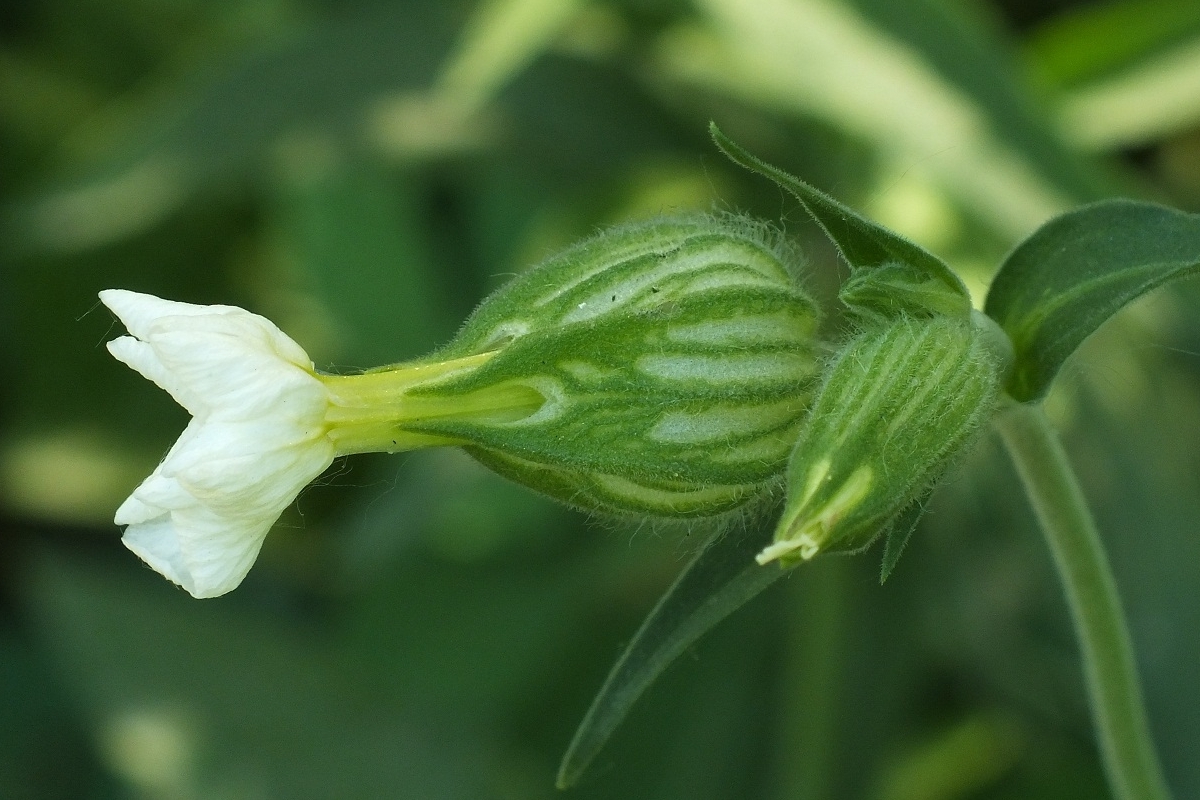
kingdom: Plantae
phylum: Tracheophyta
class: Magnoliopsida
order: Caryophyllales
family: Caryophyllaceae
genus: Silene
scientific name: Silene latifolia
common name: White campion
